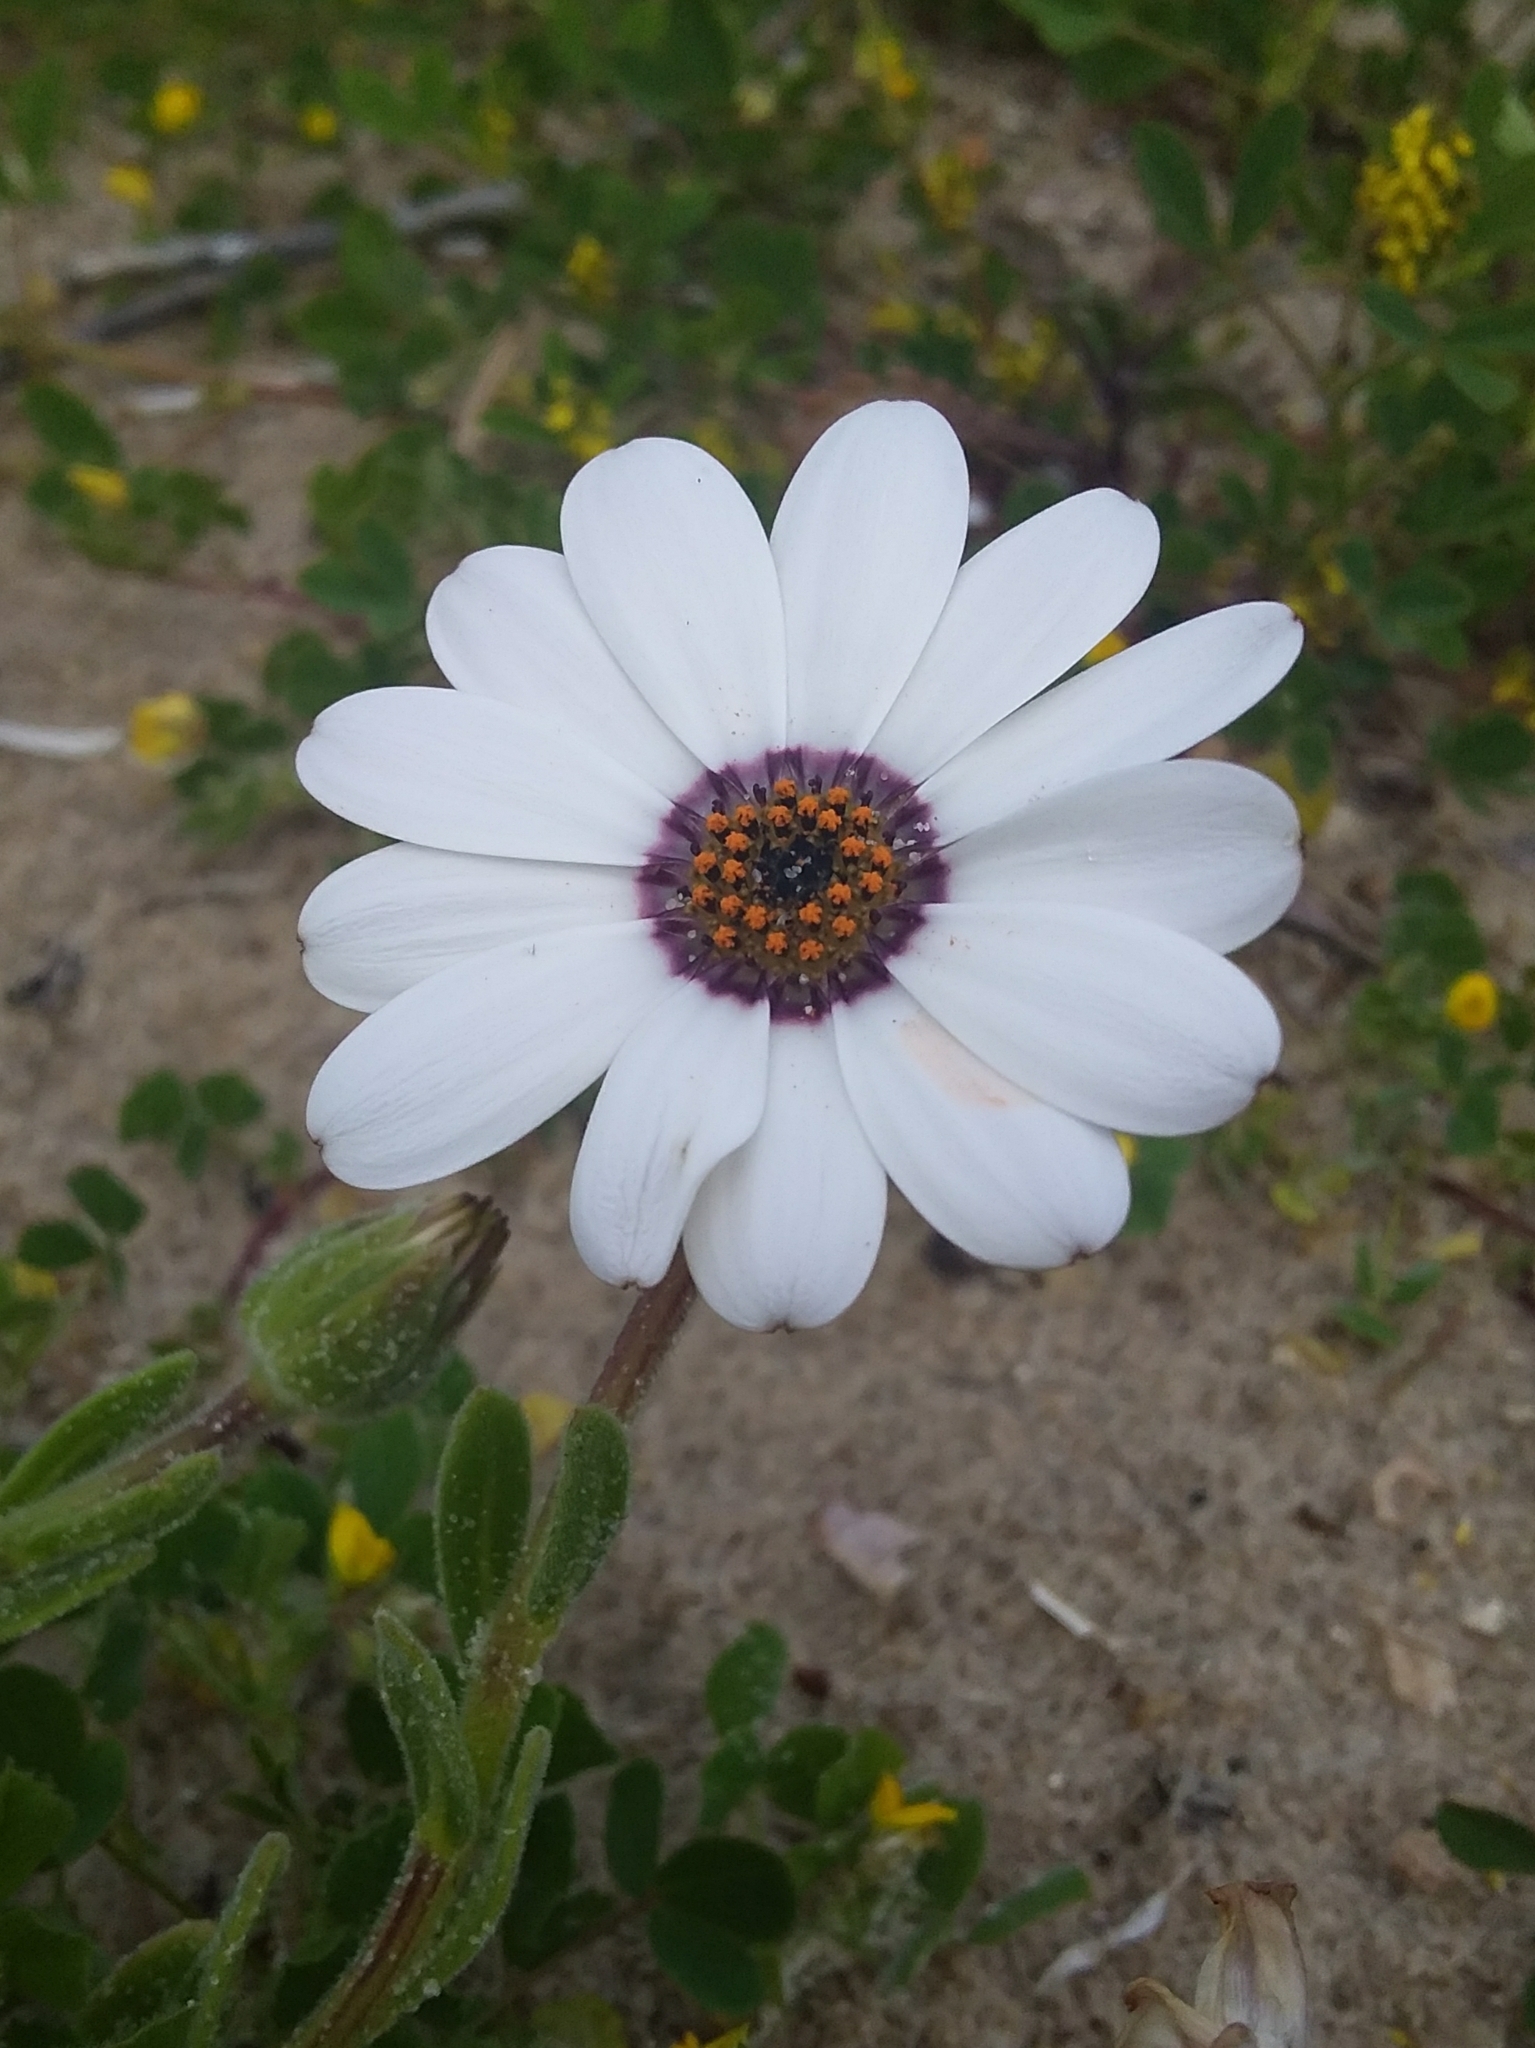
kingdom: Plantae
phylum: Tracheophyta
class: Magnoliopsida
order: Asterales
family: Asteraceae
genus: Dimorphotheca
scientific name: Dimorphotheca pluvialis
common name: Weather prophet
